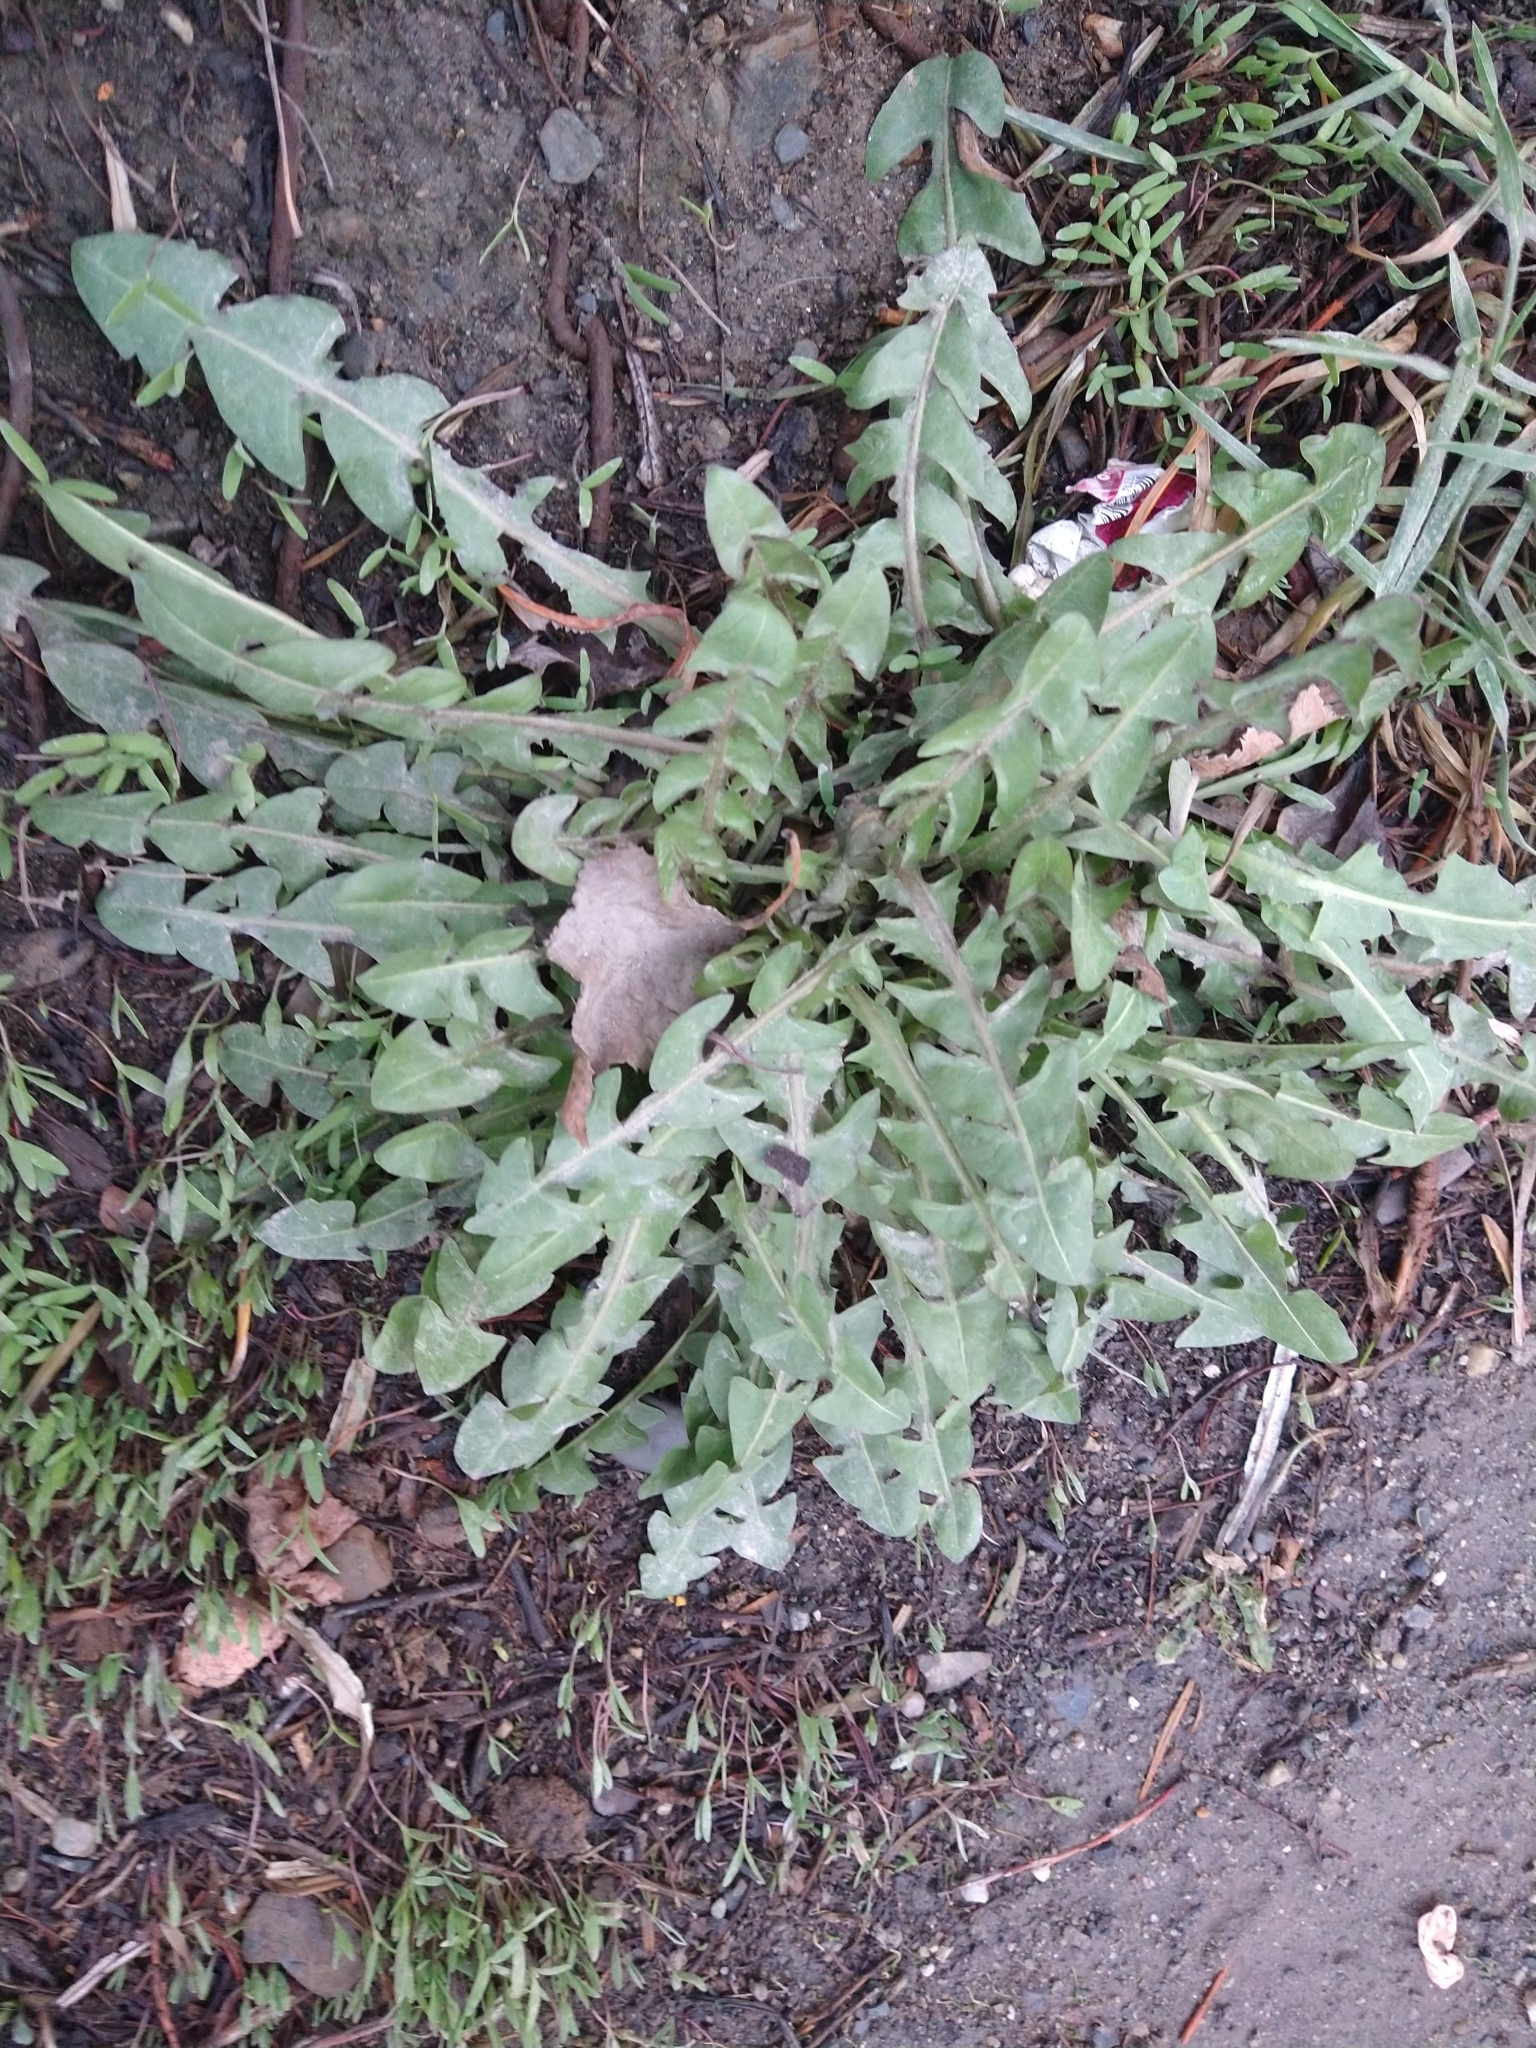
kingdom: Plantae
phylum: Tracheophyta
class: Magnoliopsida
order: Asterales
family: Asteraceae
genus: Taraxacum
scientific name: Taraxacum officinale
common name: Common dandelion
